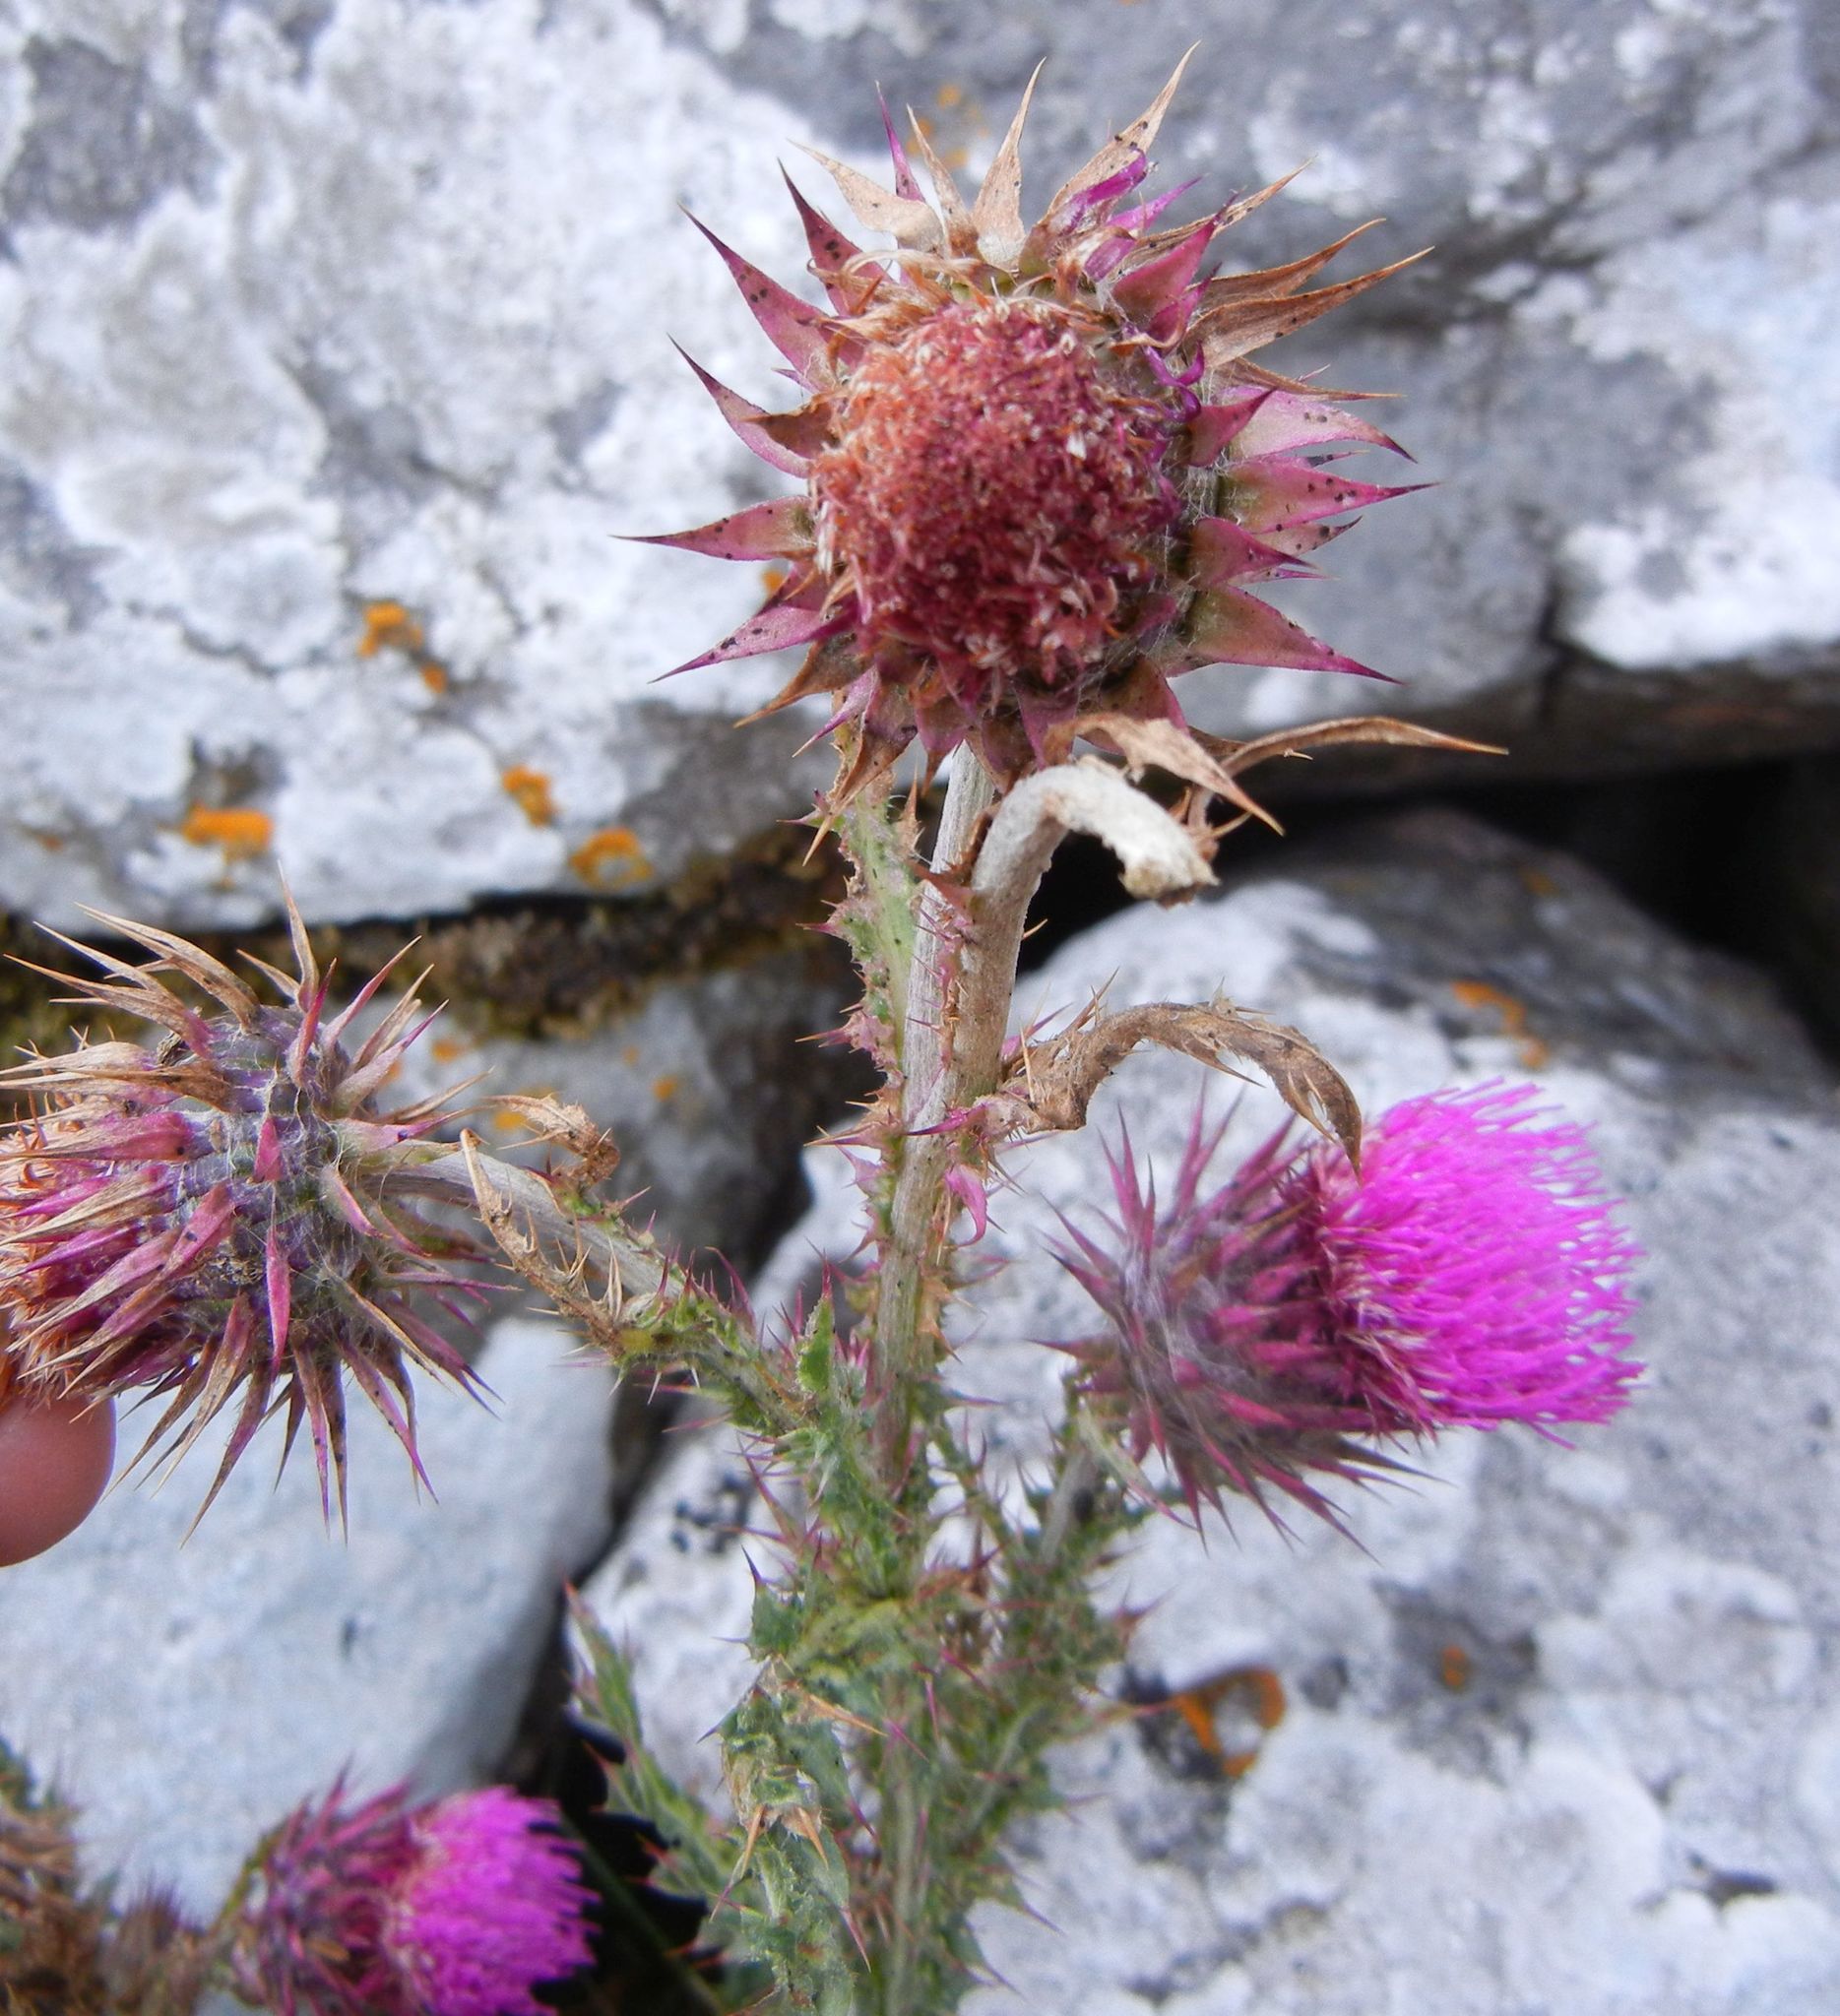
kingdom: Plantae
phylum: Tracheophyta
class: Magnoliopsida
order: Asterales
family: Asteraceae
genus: Carduus
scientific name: Carduus nutans
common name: Musk thistle
